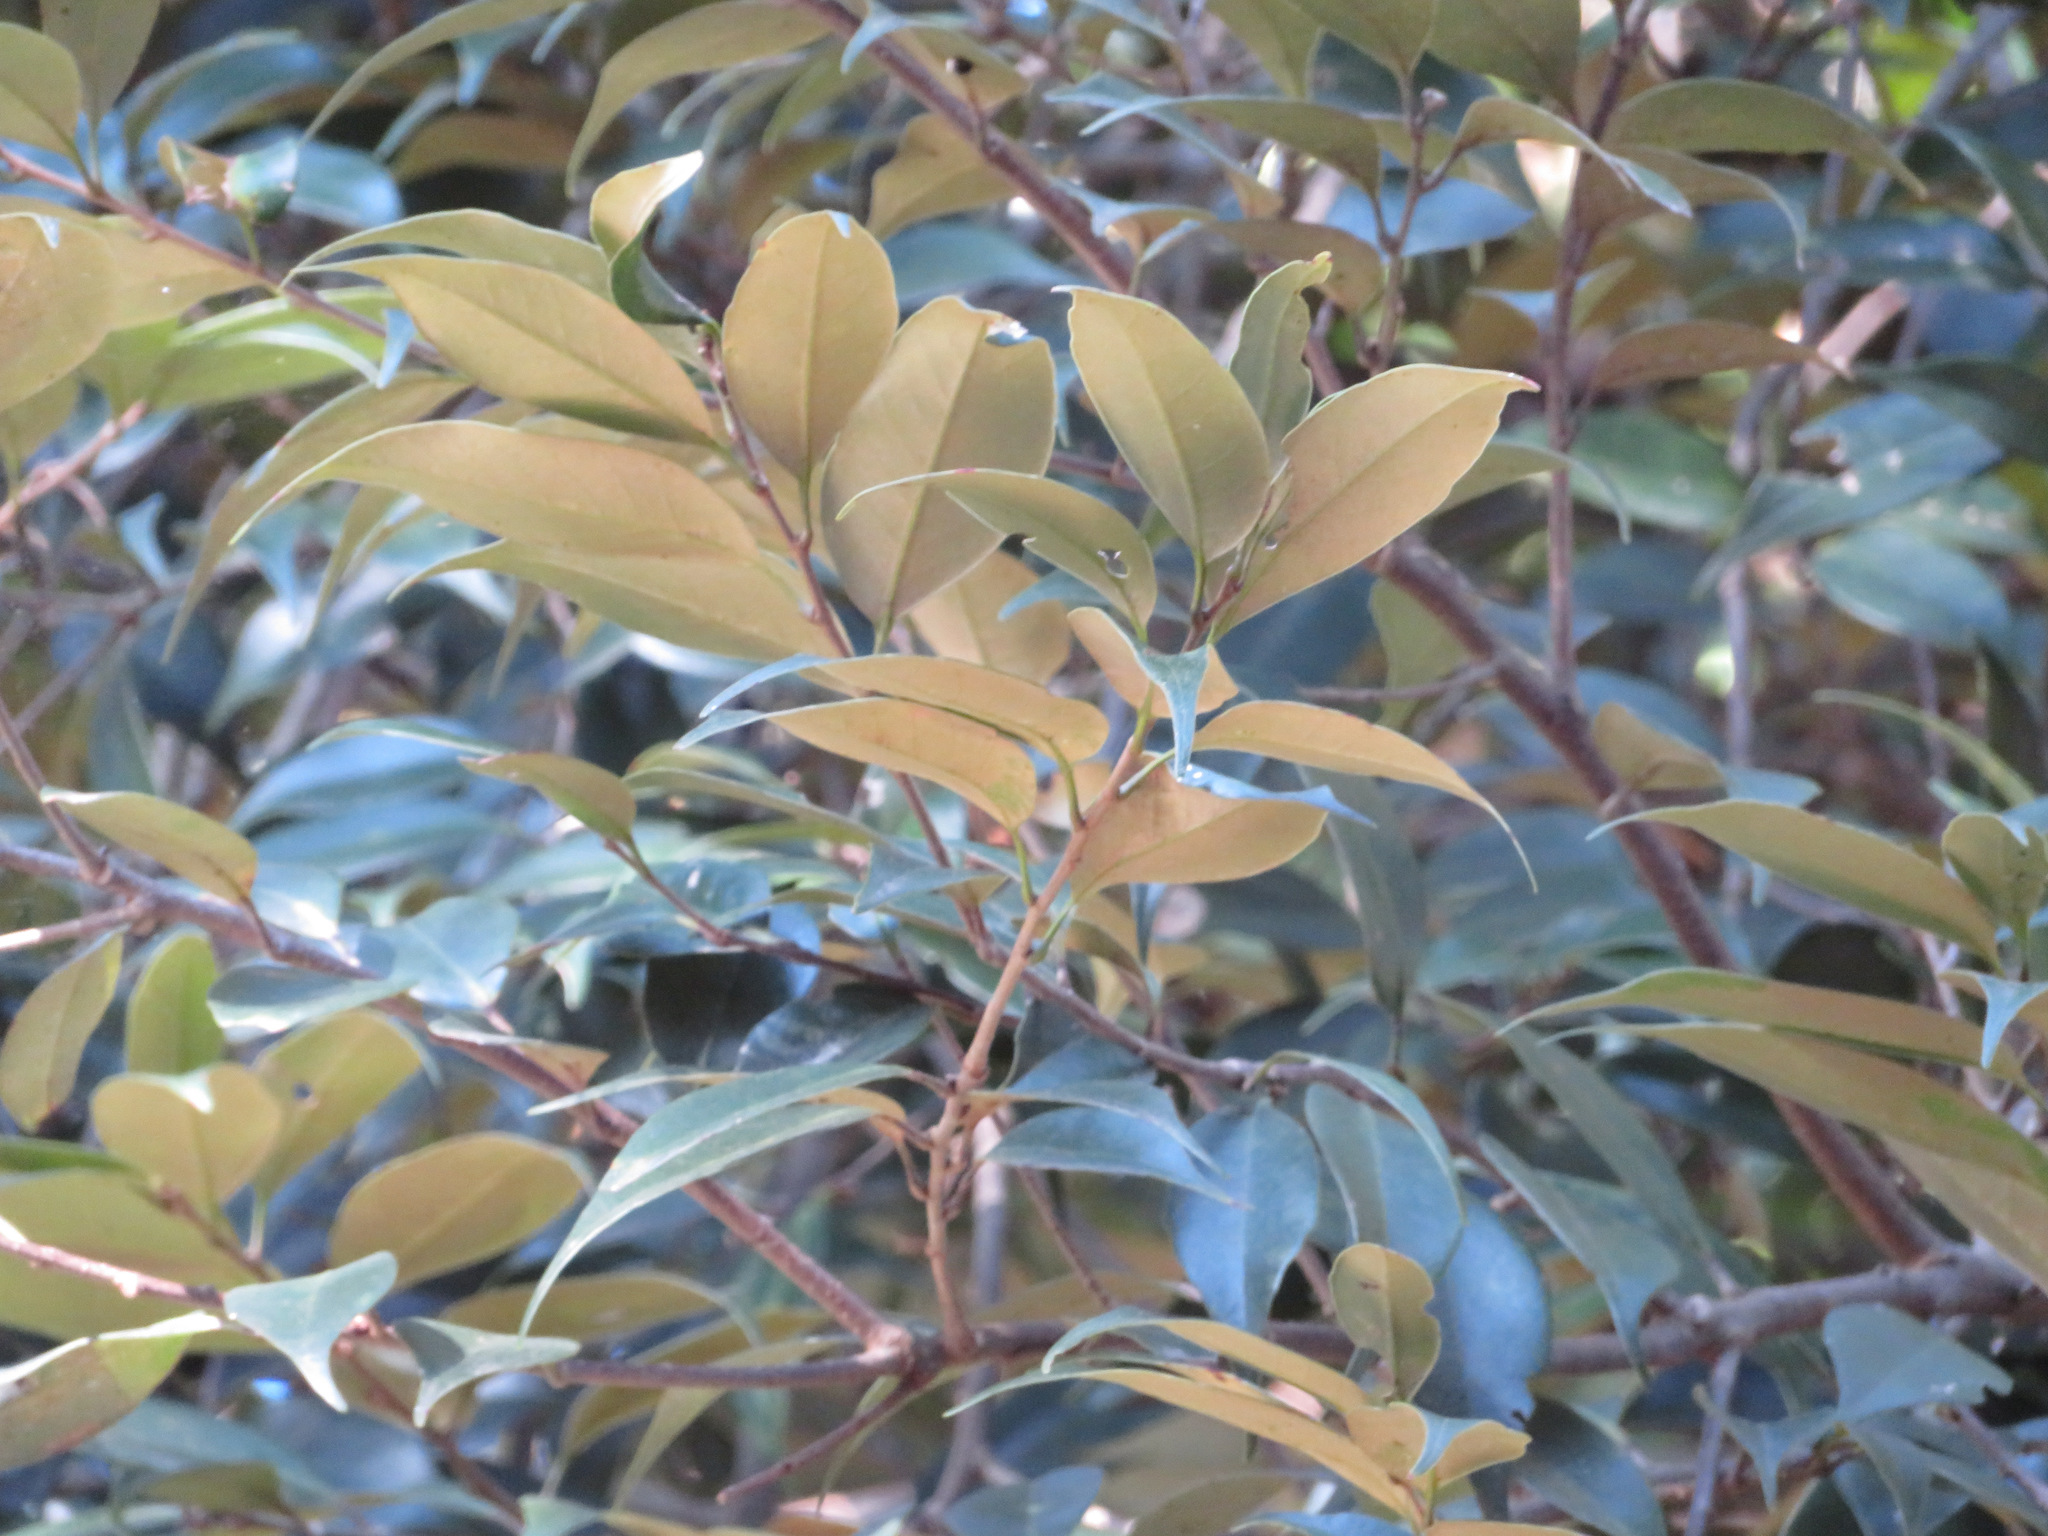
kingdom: Plantae
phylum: Tracheophyta
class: Magnoliopsida
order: Fagales
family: Fagaceae
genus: Castanopsis
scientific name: Castanopsis sieboldii
